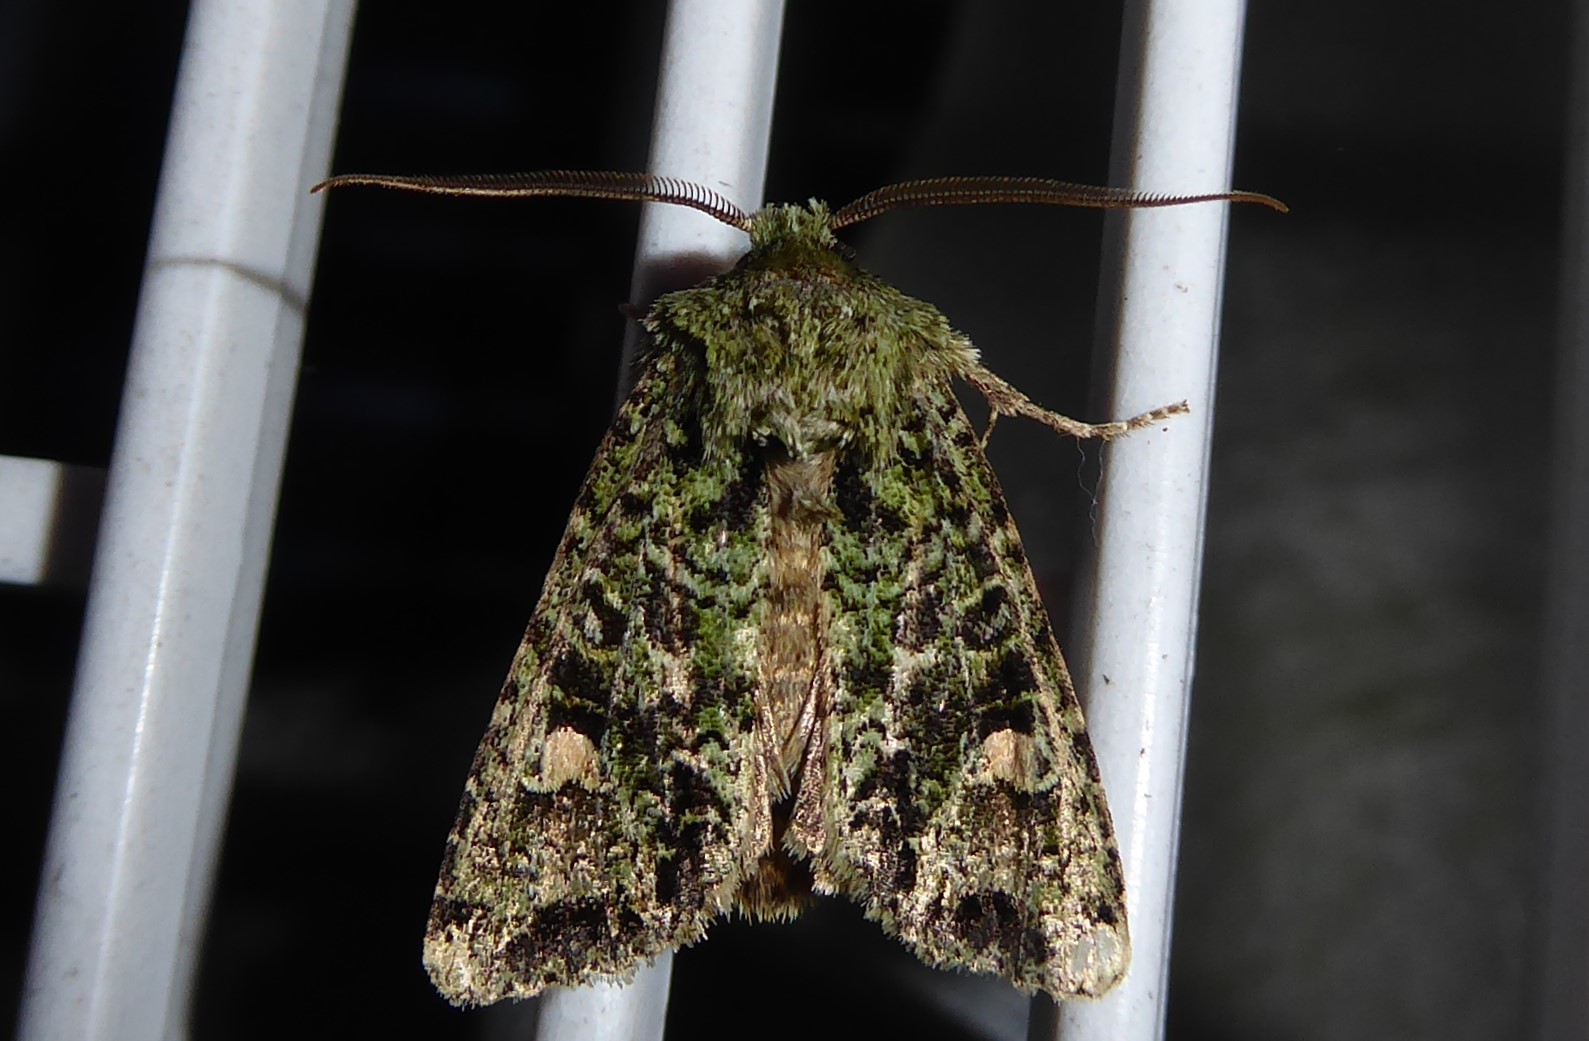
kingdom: Animalia
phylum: Arthropoda
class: Insecta
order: Lepidoptera
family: Noctuidae
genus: Ichneutica
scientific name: Ichneutica
